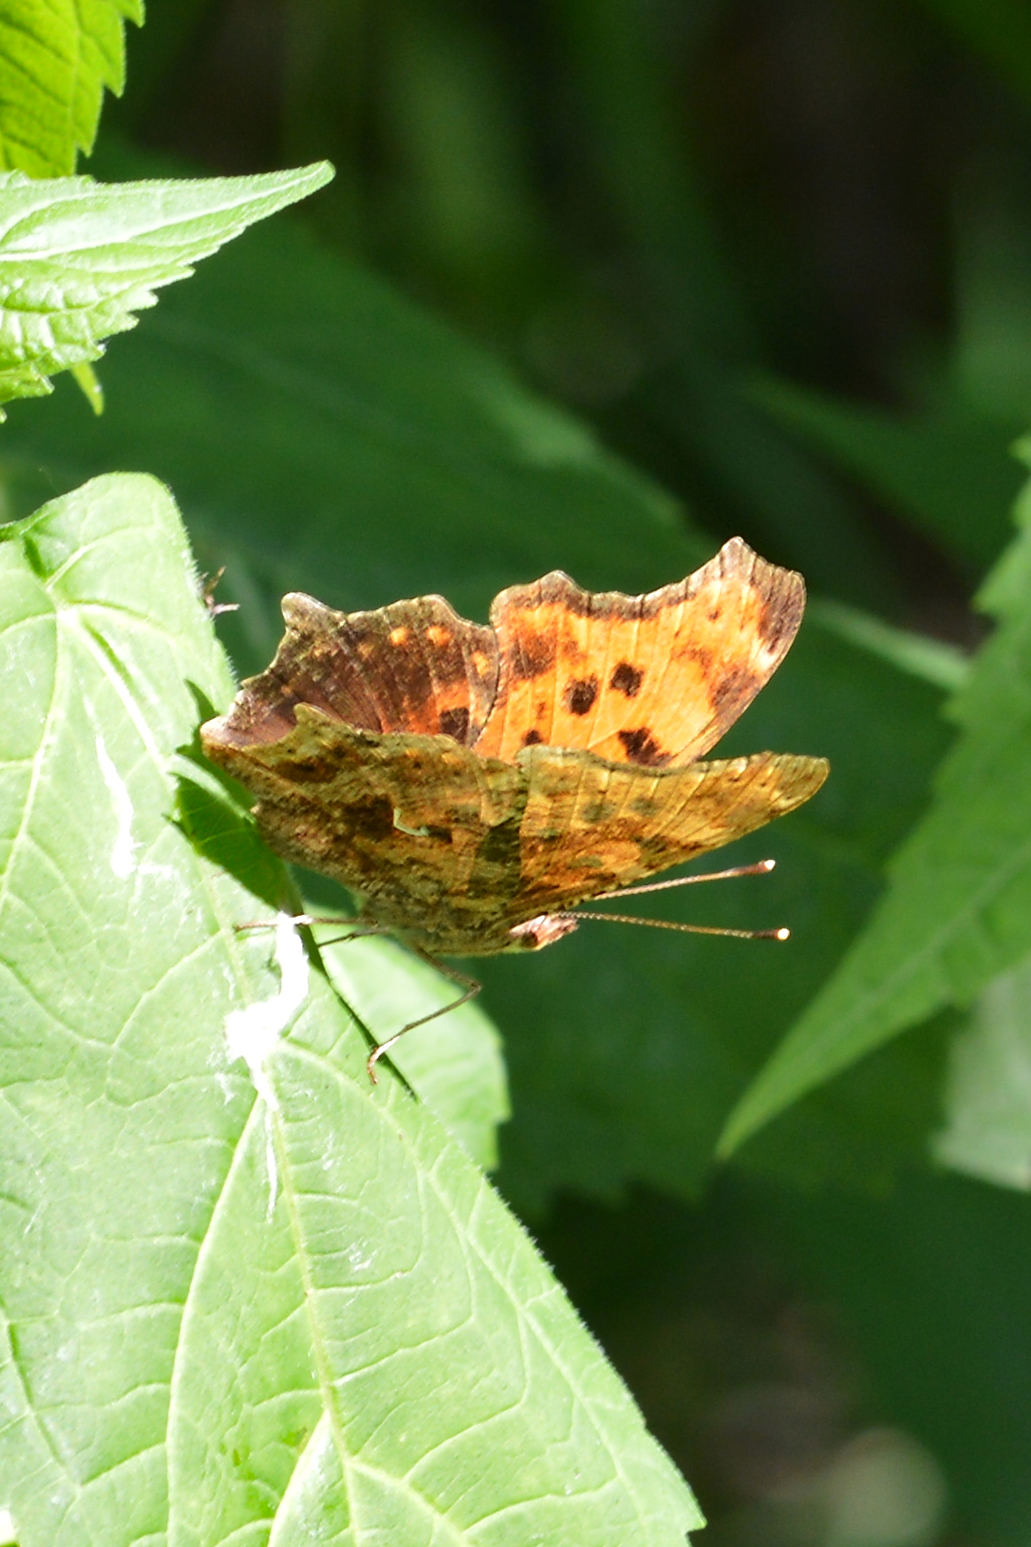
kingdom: Animalia
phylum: Arthropoda
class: Insecta
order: Lepidoptera
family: Nymphalidae
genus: Polygonia
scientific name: Polygonia comma
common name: Eastern comma
